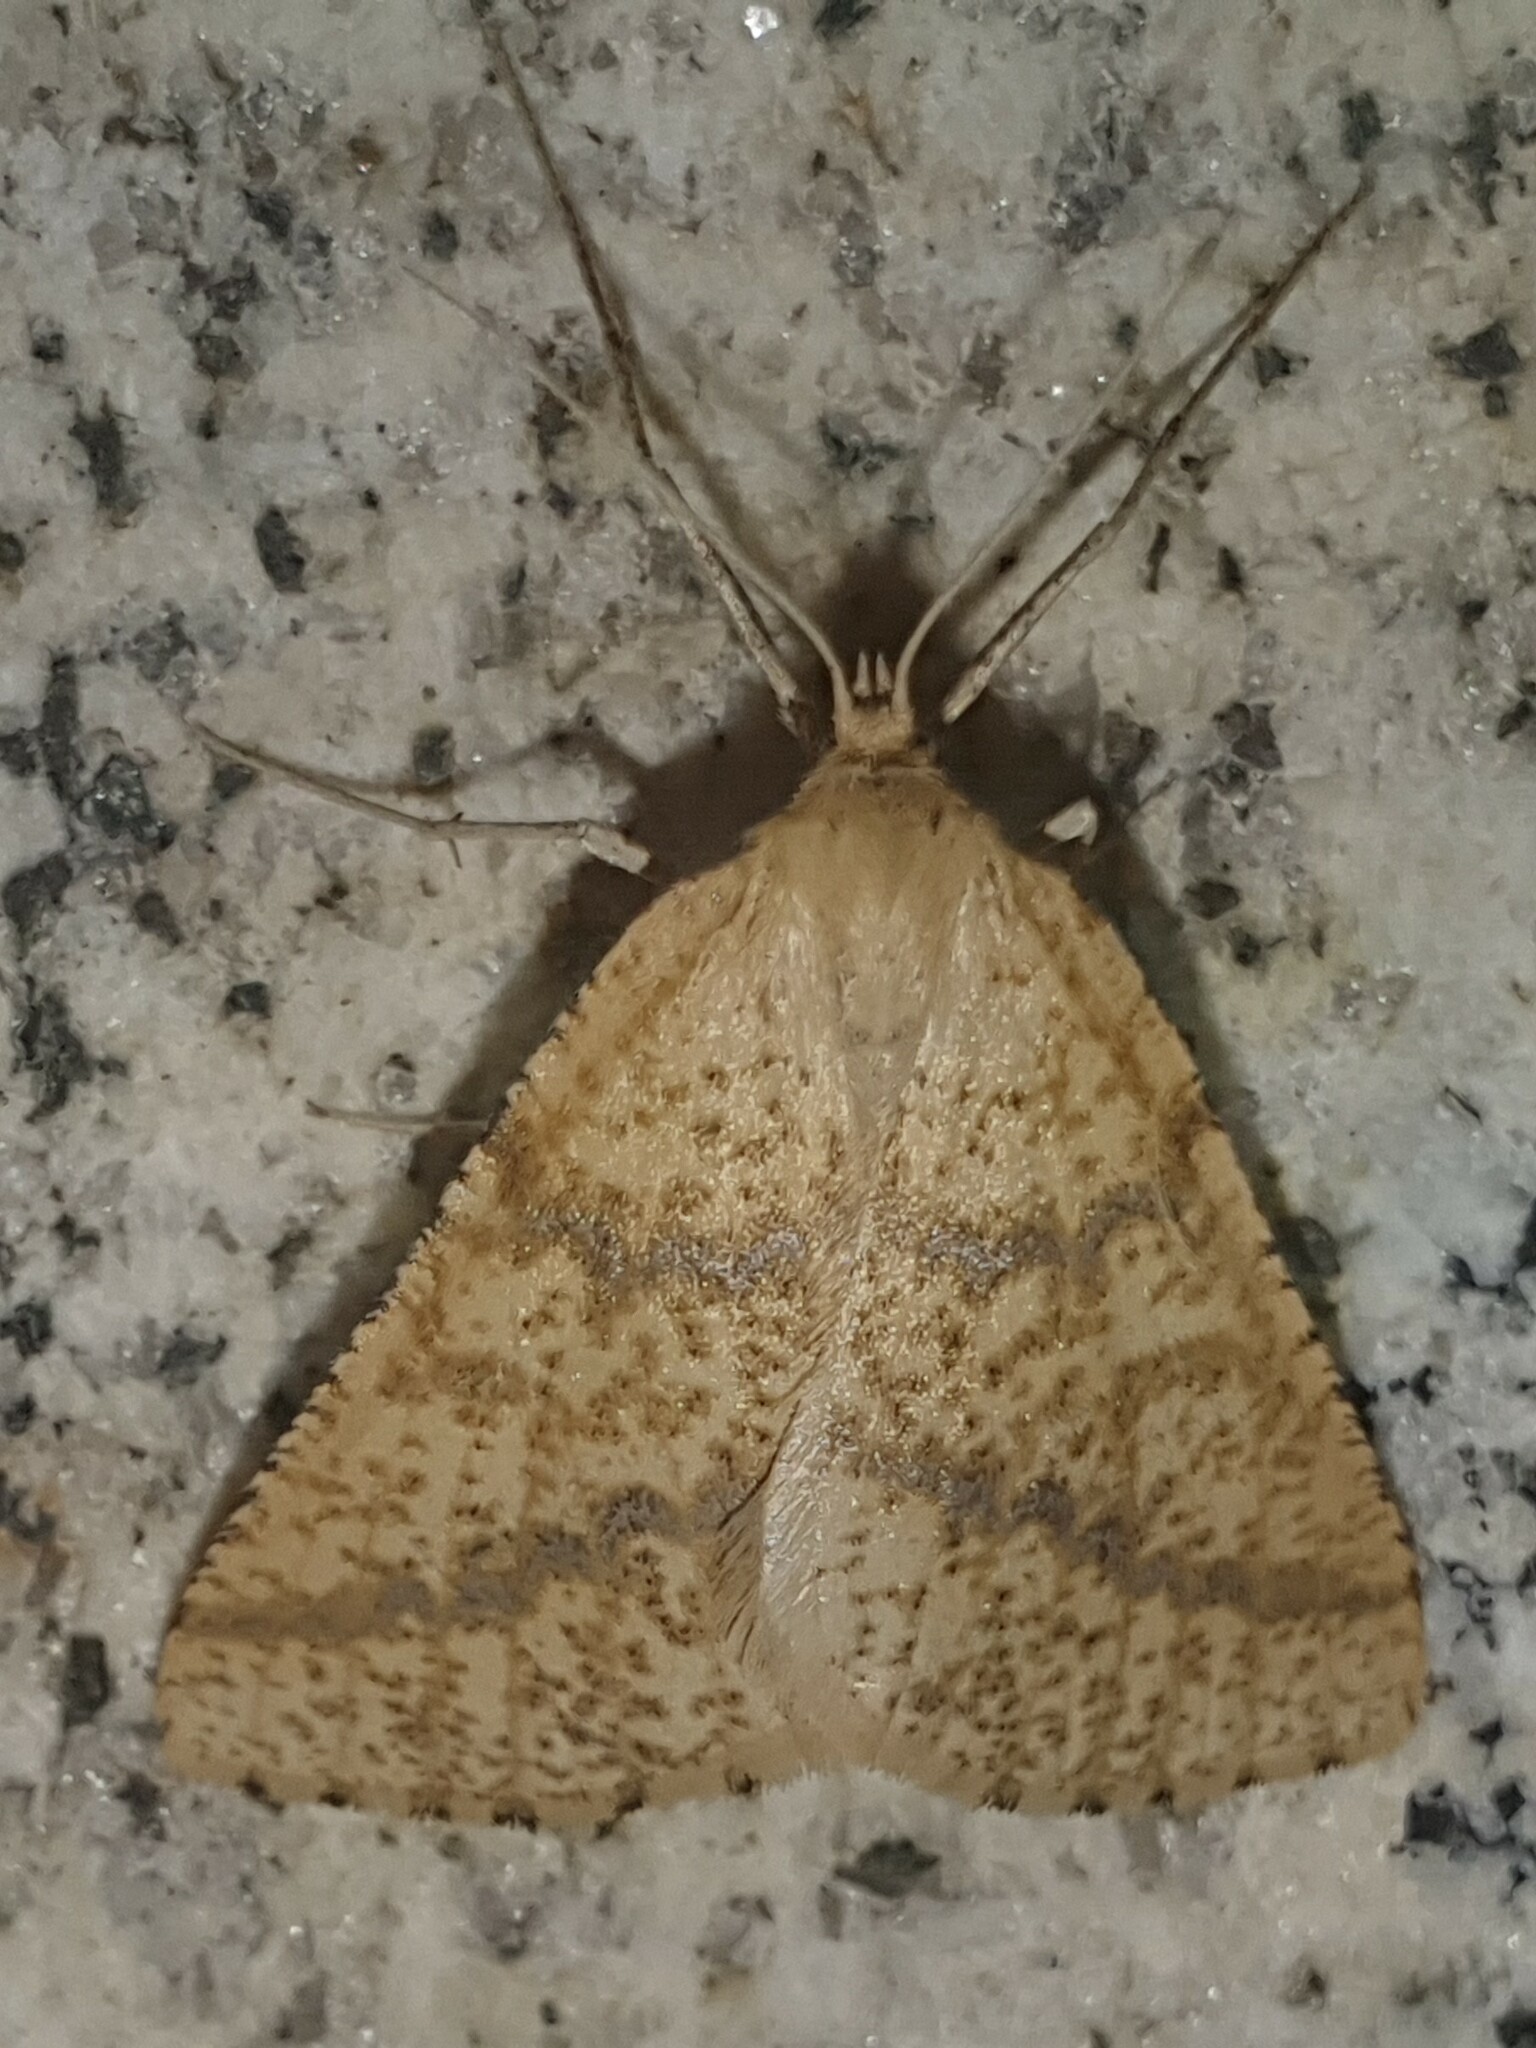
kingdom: Animalia
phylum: Arthropoda
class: Insecta
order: Lepidoptera
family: Geometridae
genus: Aspitates
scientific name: Aspitates ochrearia
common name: Yellow belle
